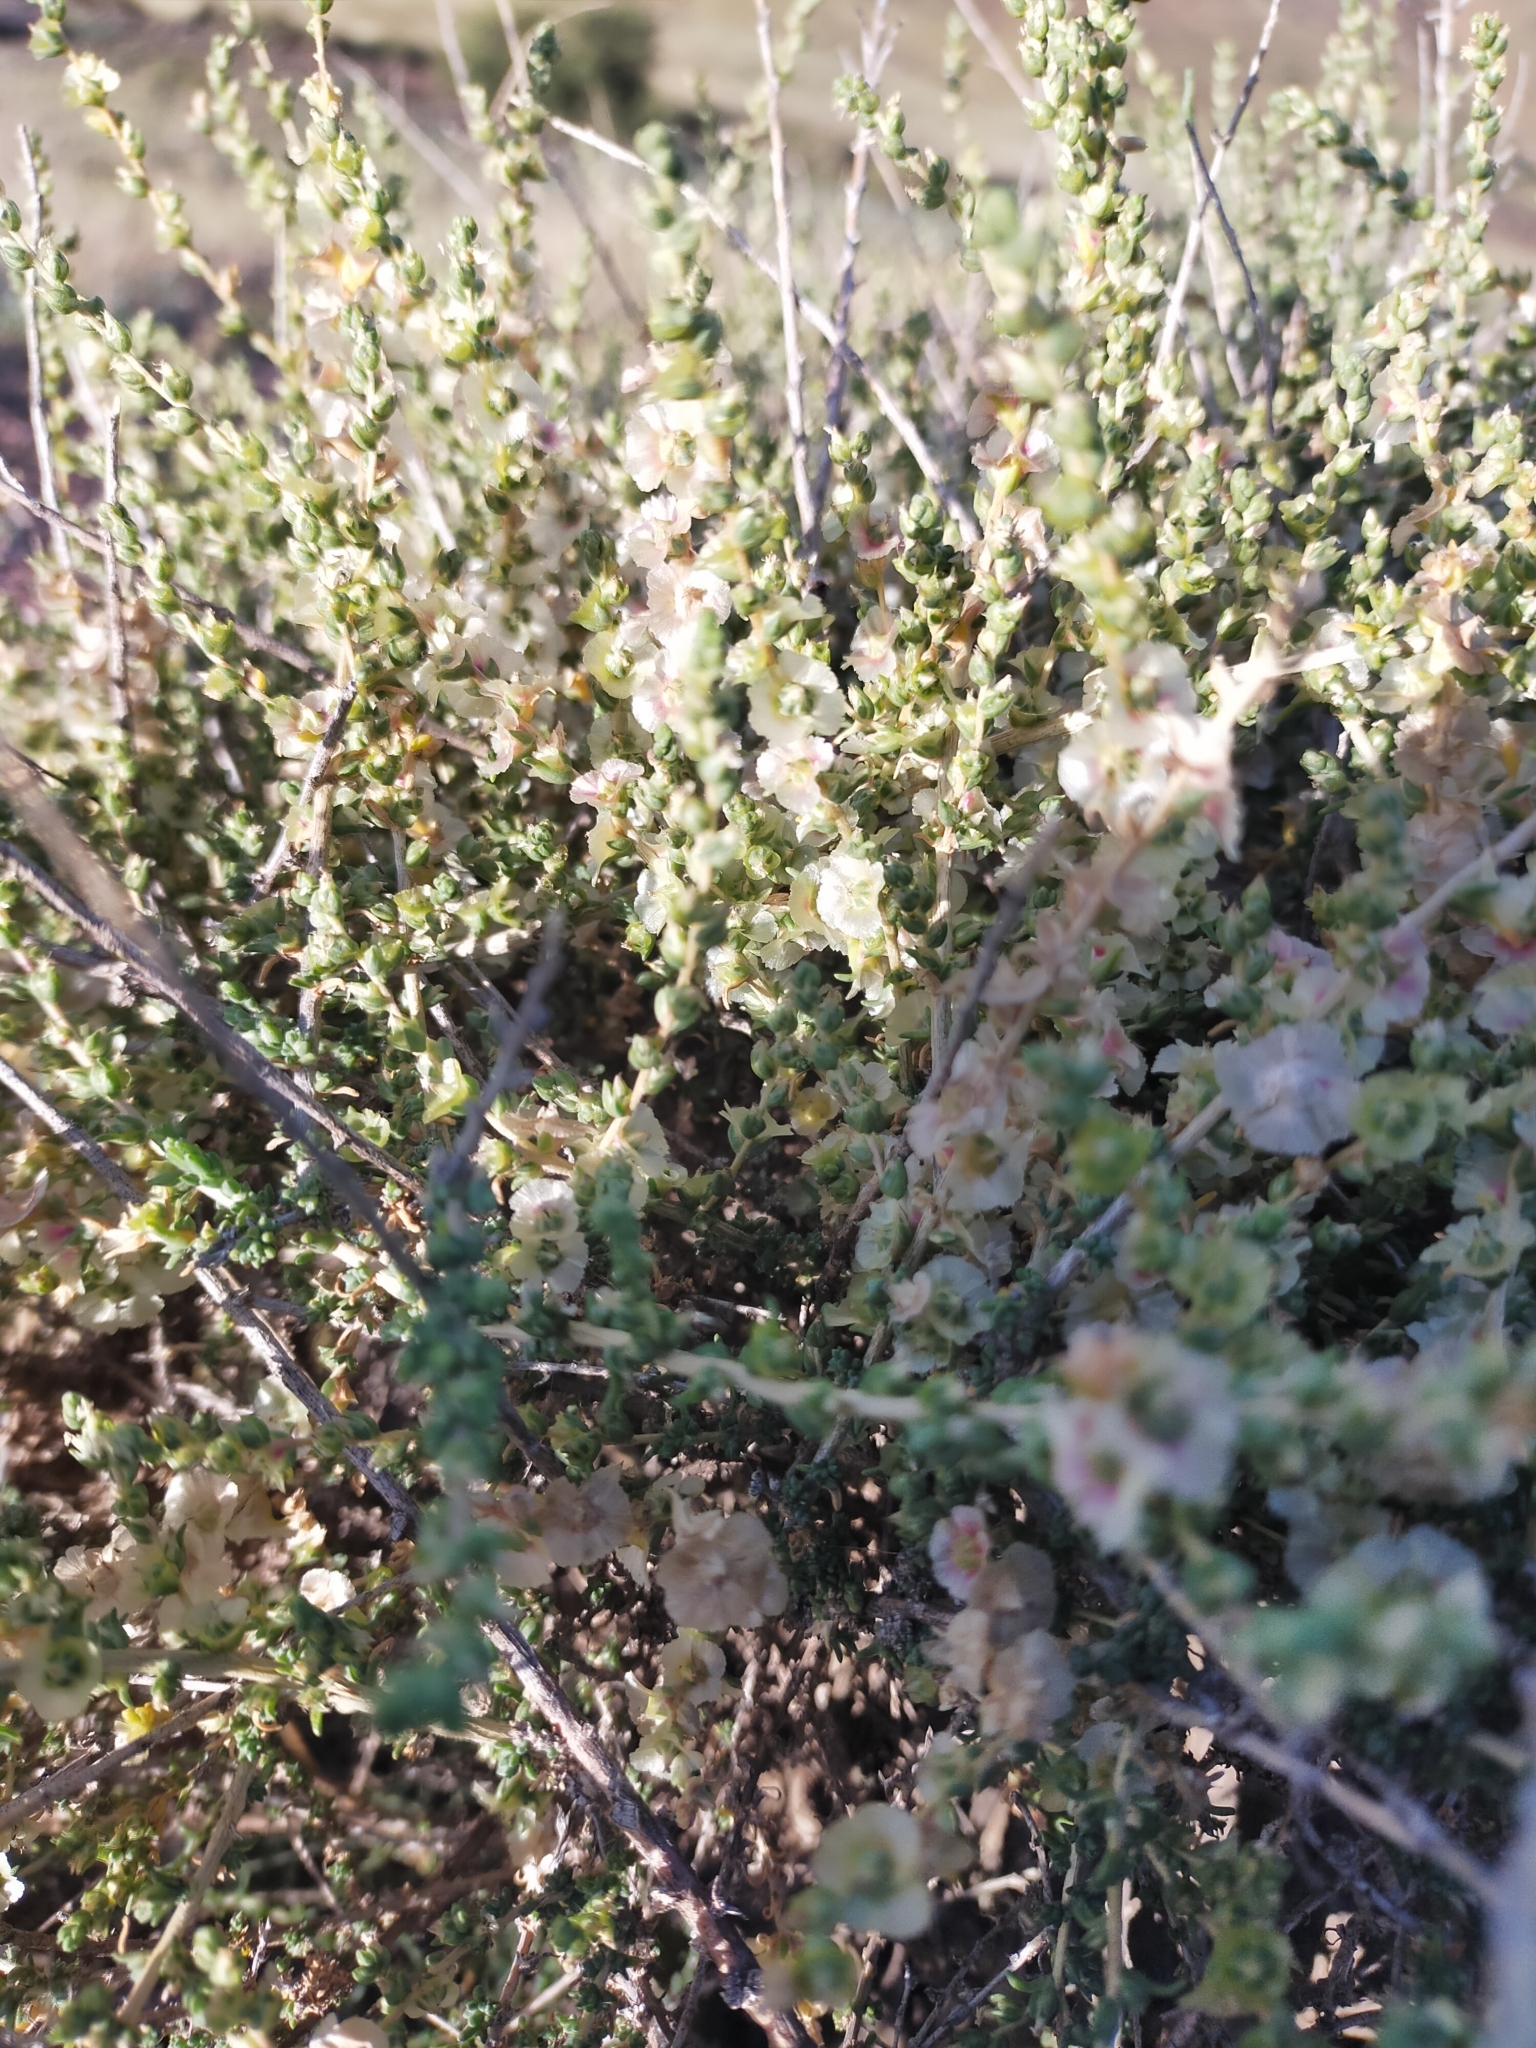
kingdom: Plantae
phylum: Tracheophyta
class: Magnoliopsida
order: Caryophyllales
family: Amaranthaceae
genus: Nitrosalsola
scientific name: Nitrosalsola vermiculata
